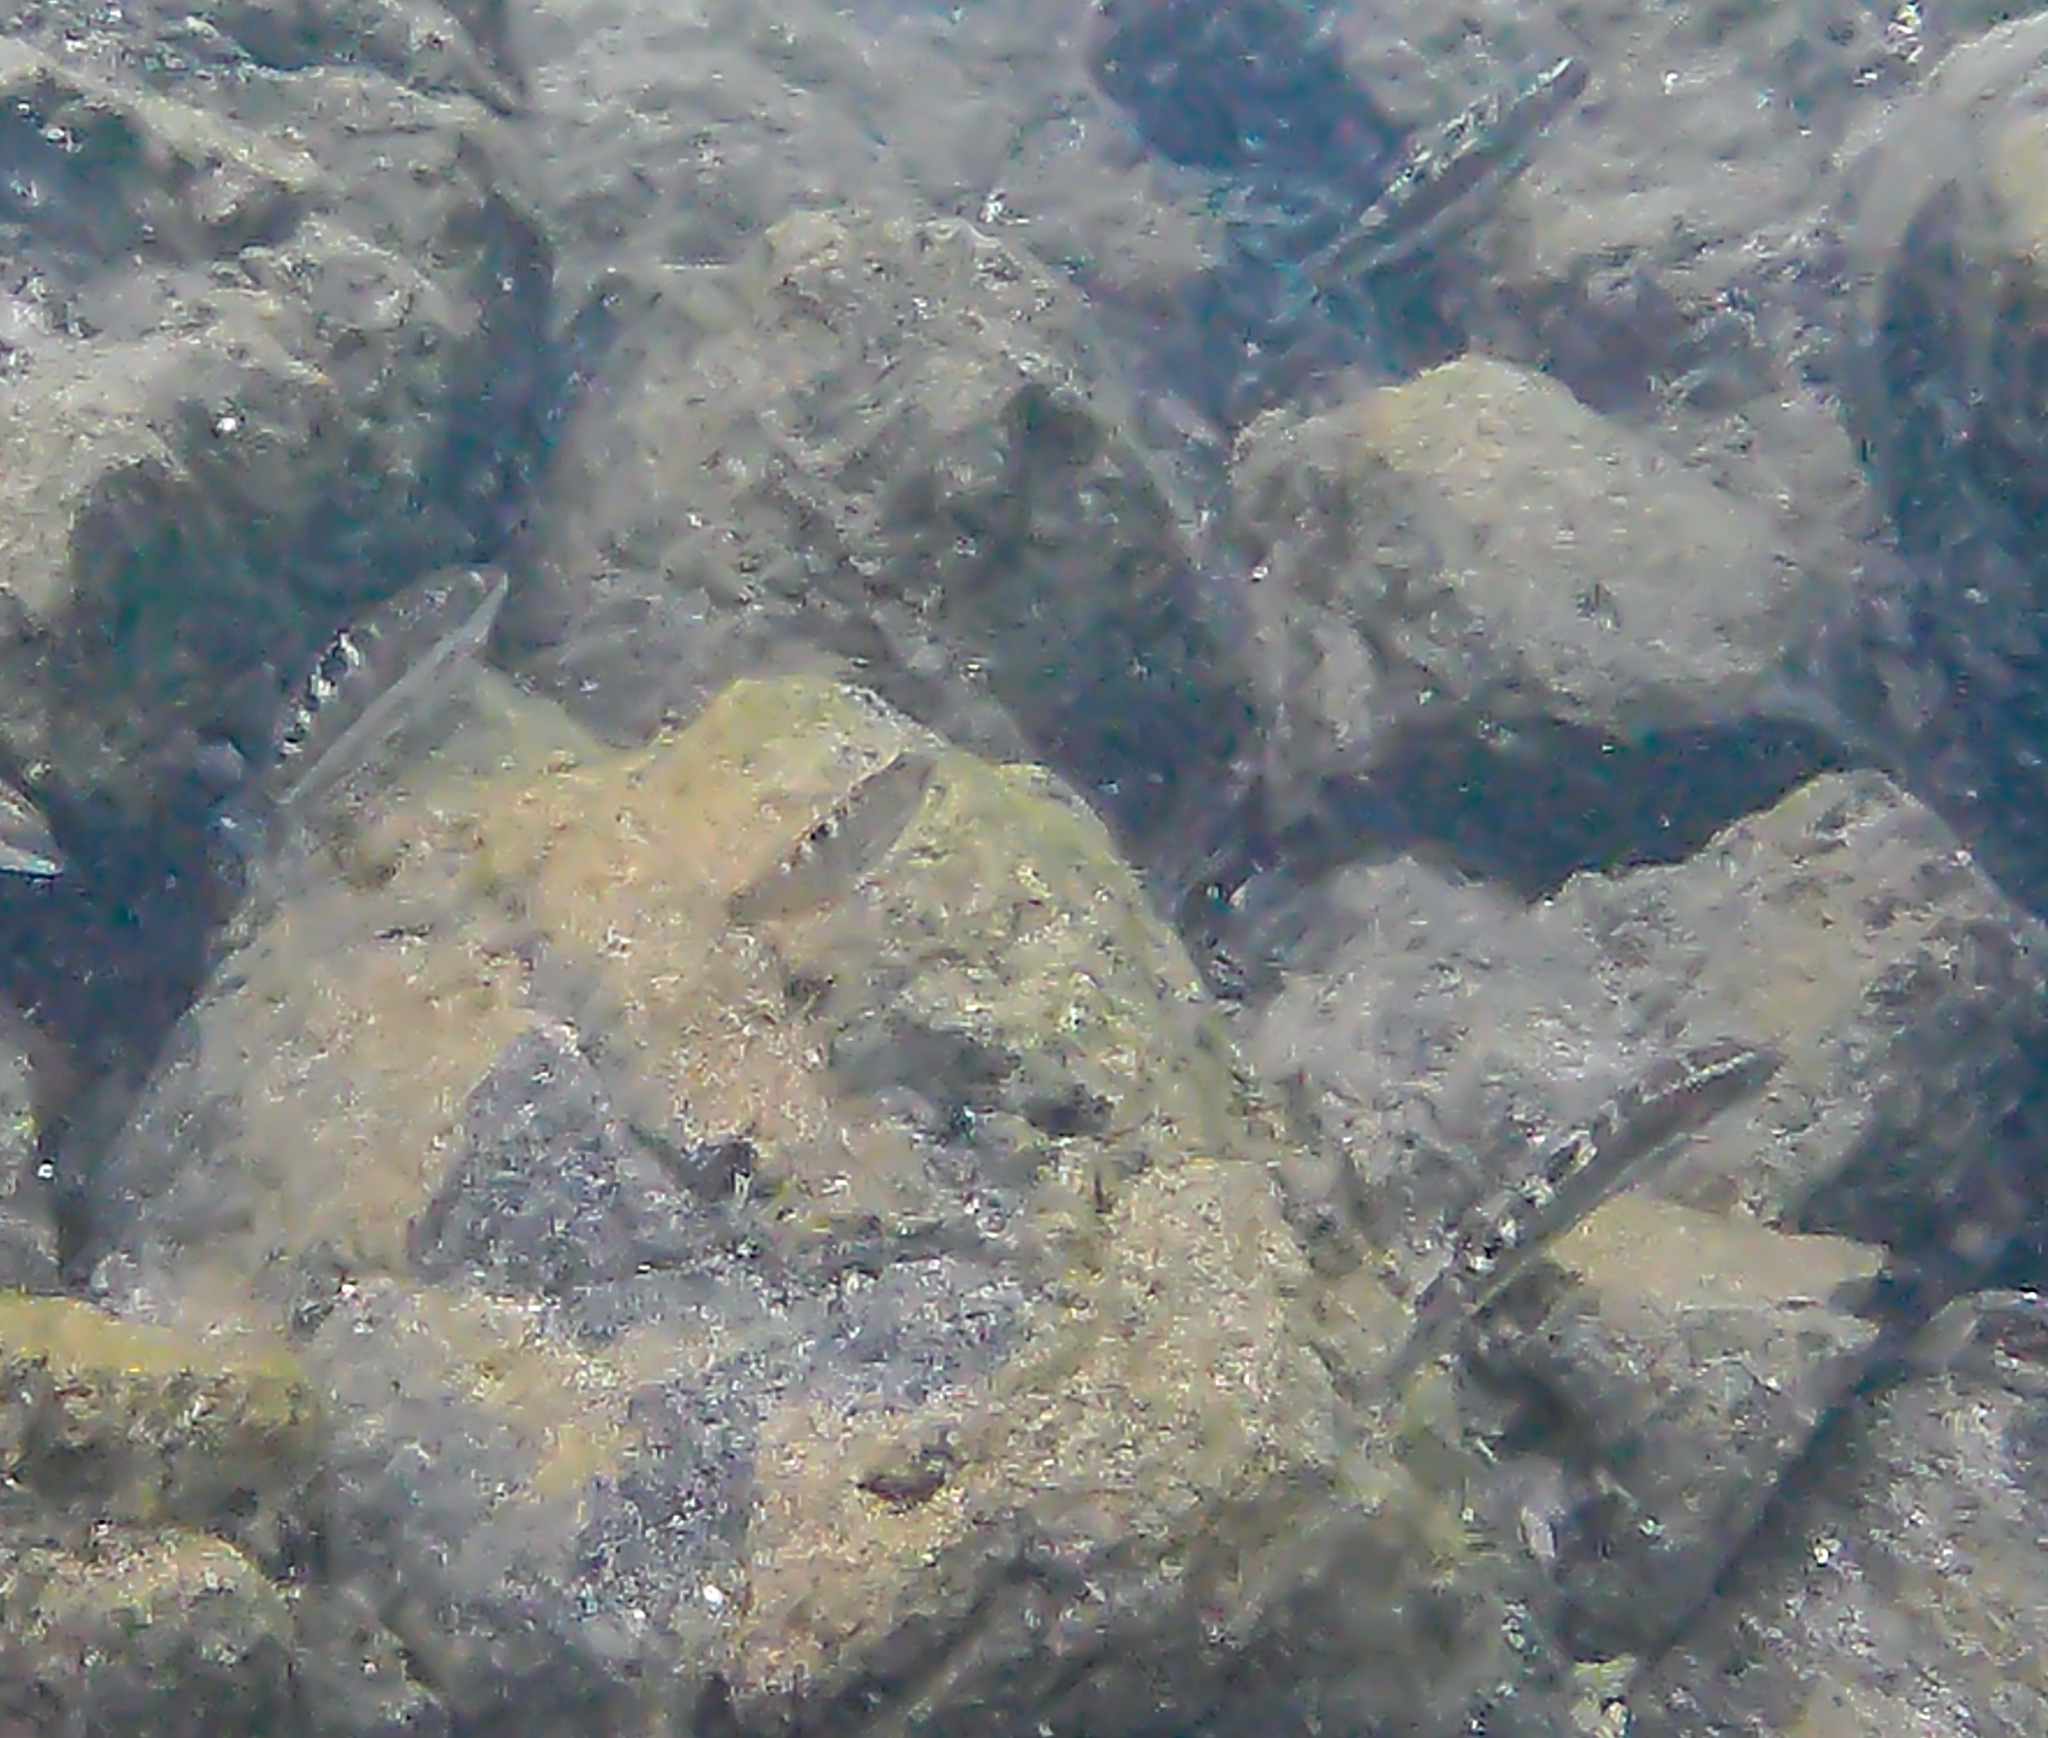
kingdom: Animalia
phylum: Chordata
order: Perciformes
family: Labridae
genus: Halichoeres
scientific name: Halichoeres notospilus
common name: Banded wrasse
